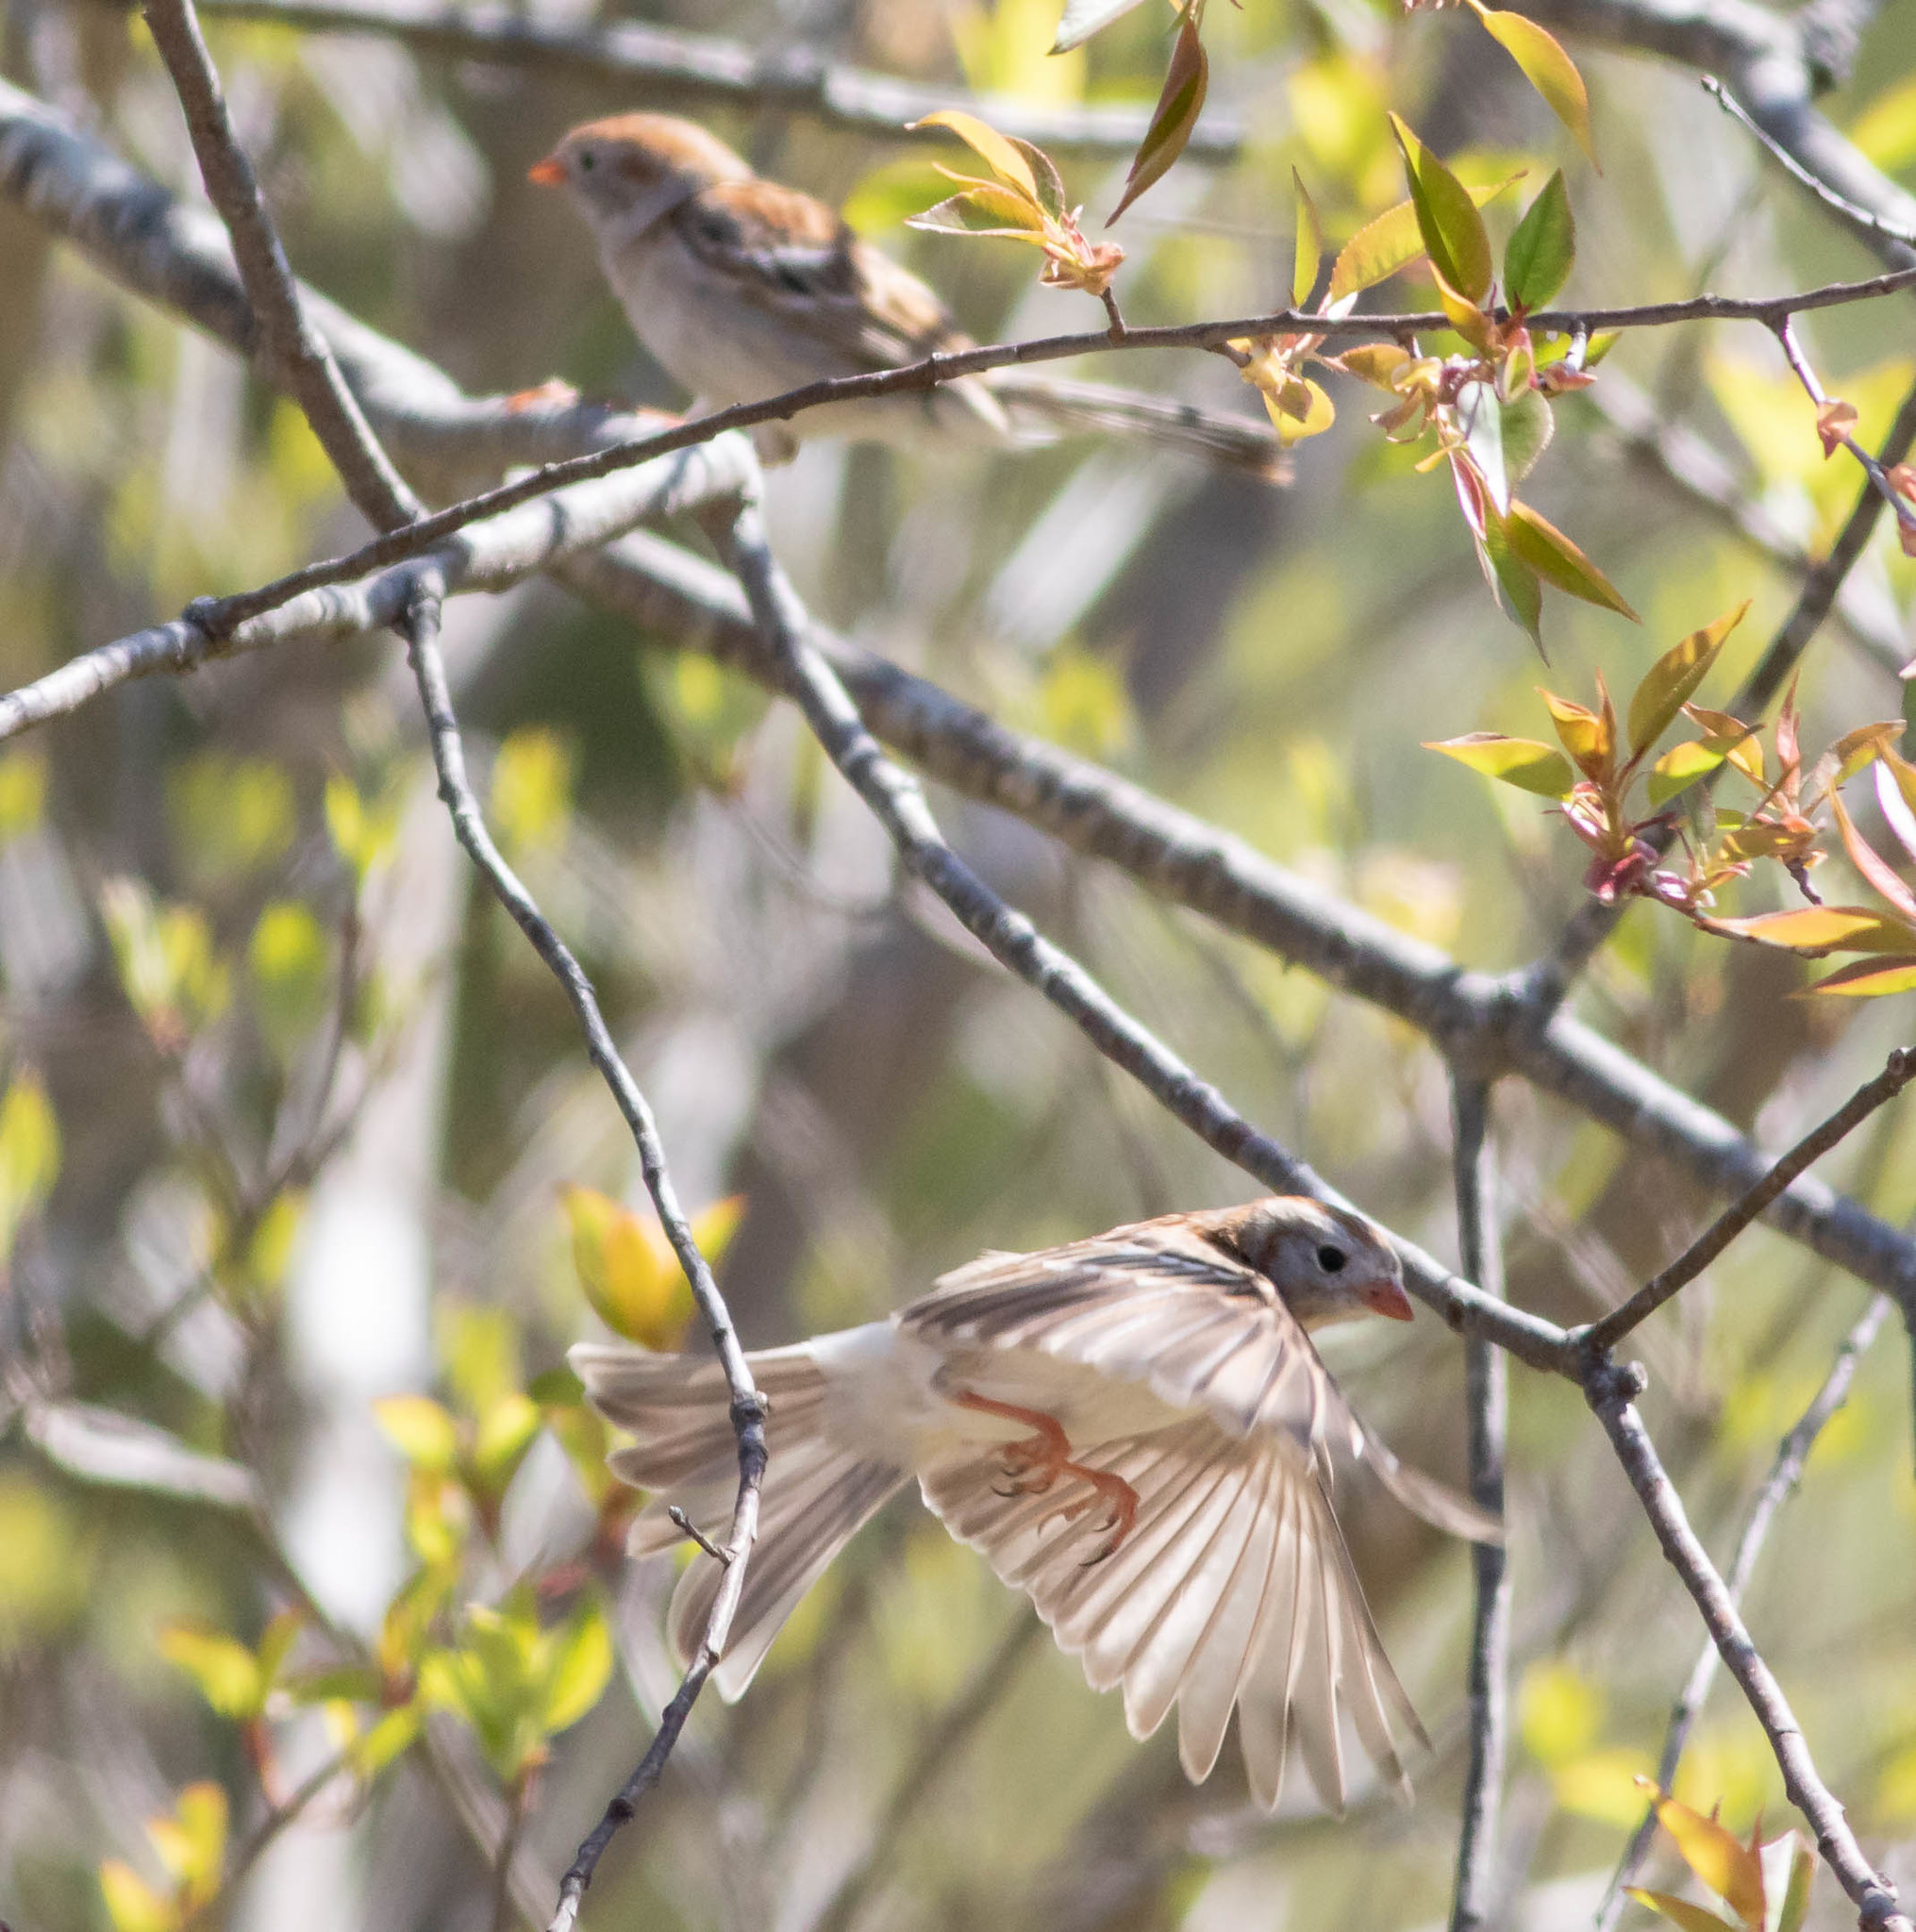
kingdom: Animalia
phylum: Chordata
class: Aves
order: Passeriformes
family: Passerellidae
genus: Spizella
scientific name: Spizella pusilla
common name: Field sparrow
